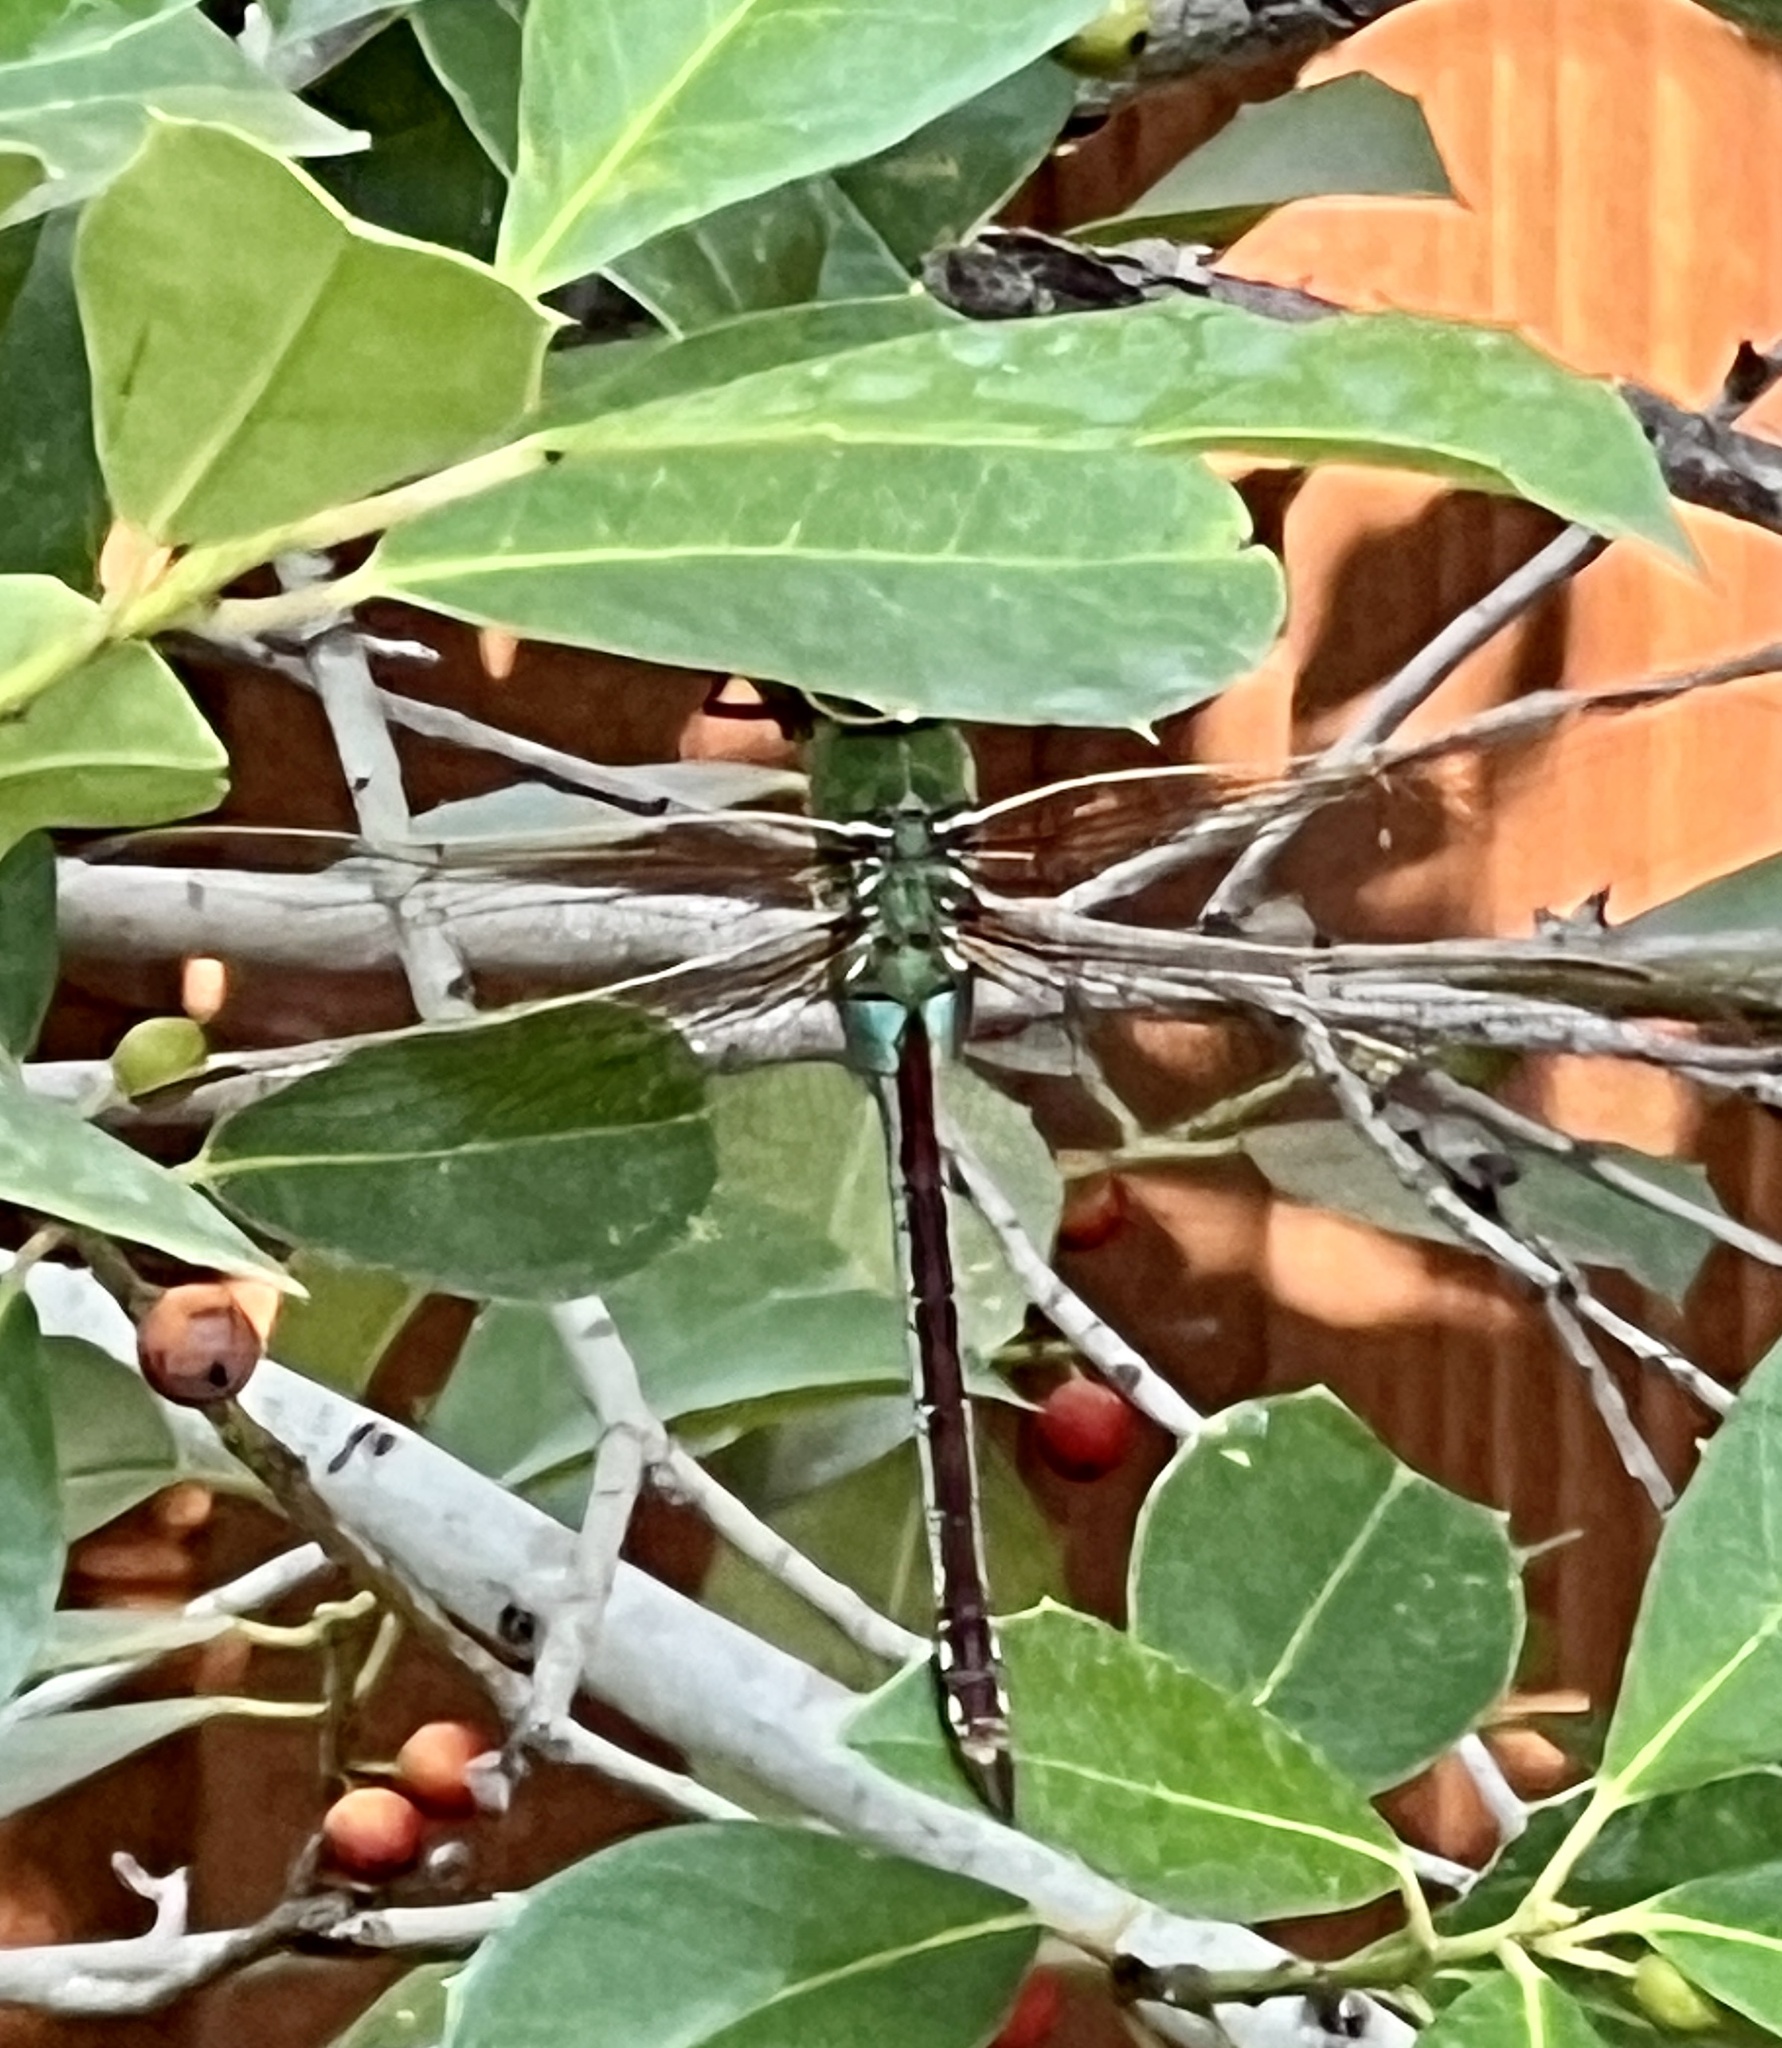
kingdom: Animalia
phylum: Arthropoda
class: Insecta
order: Odonata
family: Aeshnidae
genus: Anax
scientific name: Anax junius
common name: Common green darner
